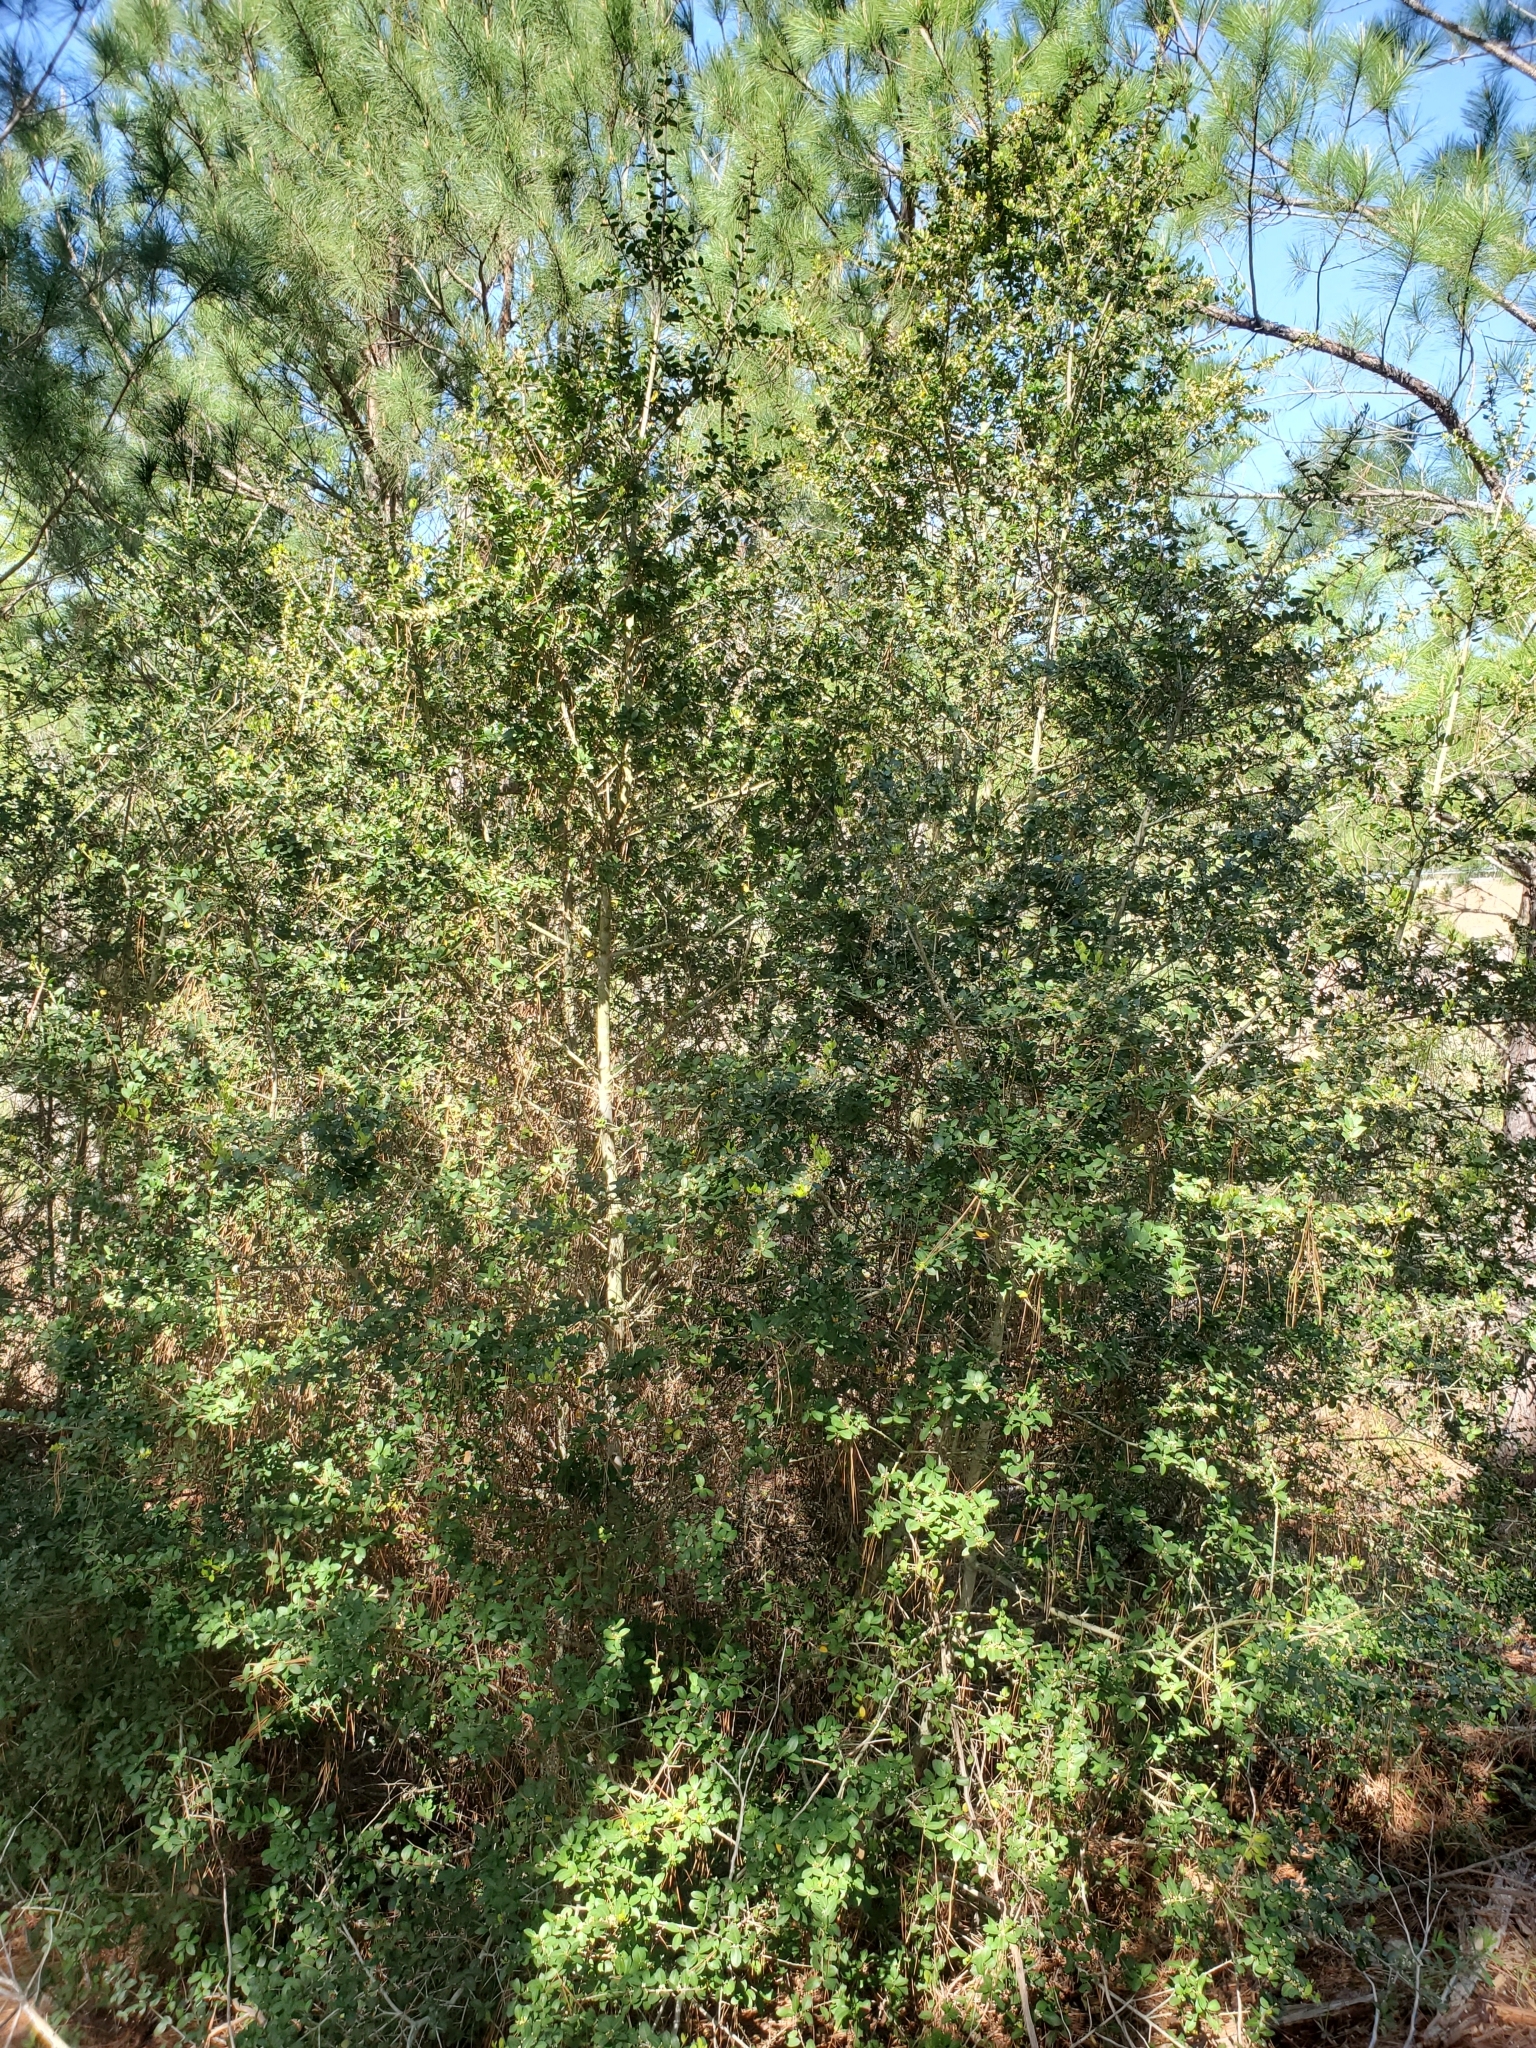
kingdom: Plantae
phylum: Tracheophyta
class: Magnoliopsida
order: Aquifoliales
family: Aquifoliaceae
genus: Ilex
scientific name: Ilex vomitoria
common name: Yaupon holly
